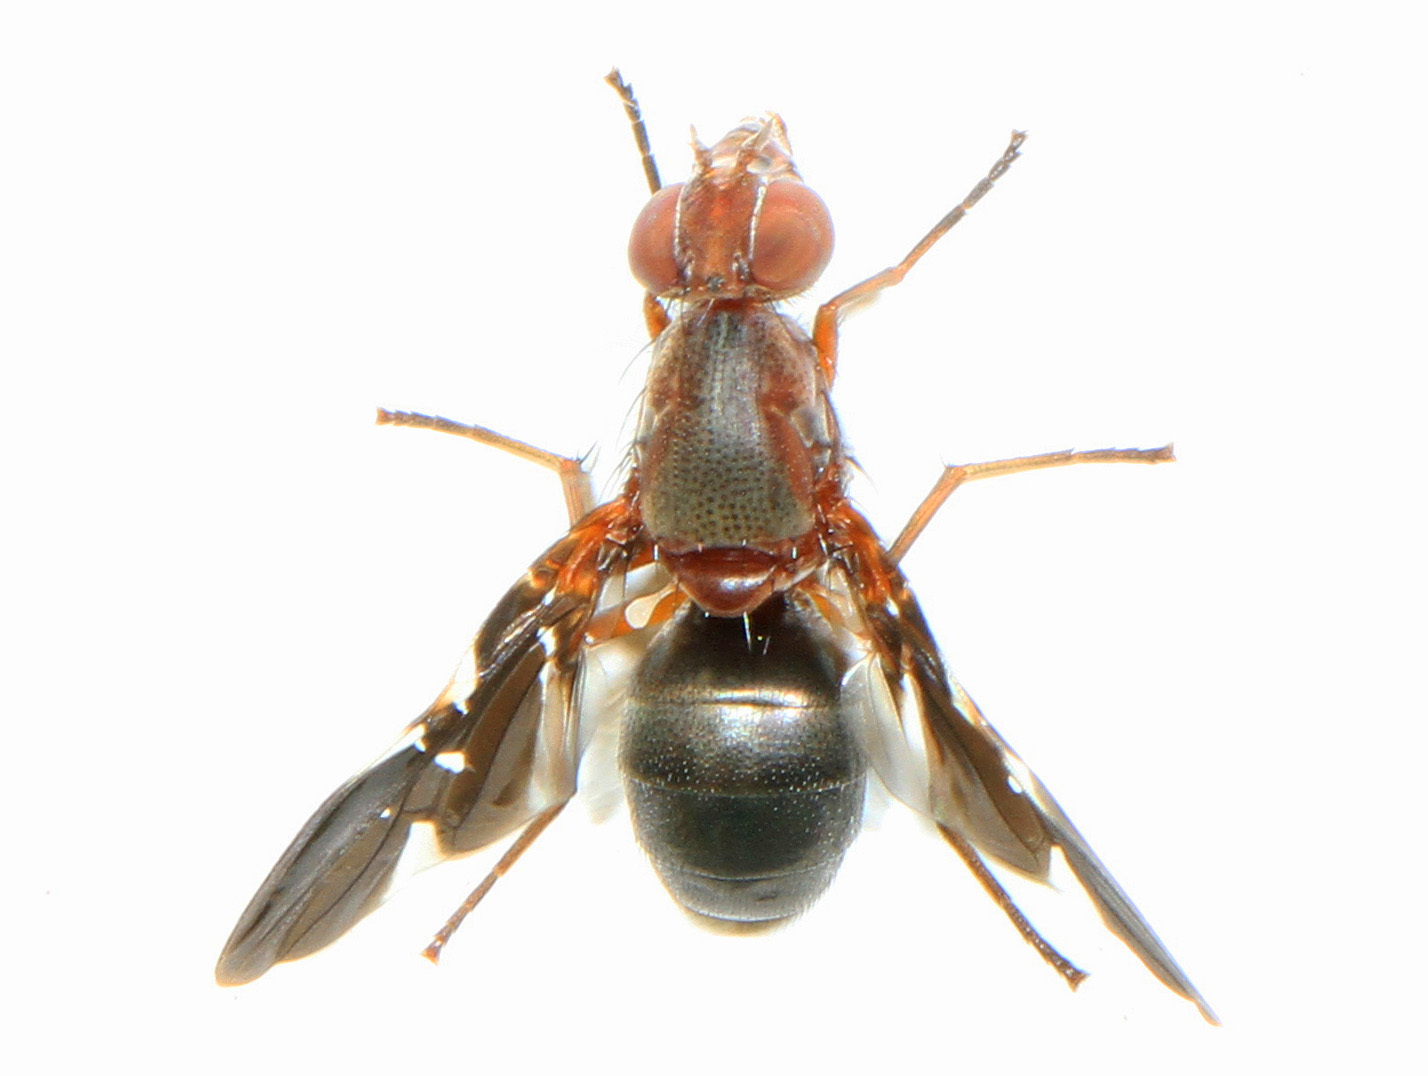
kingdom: Animalia
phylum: Arthropoda
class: Insecta
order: Diptera
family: Ulidiidae
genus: Delphinia
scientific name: Delphinia picta
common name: Common picture-winged fly
